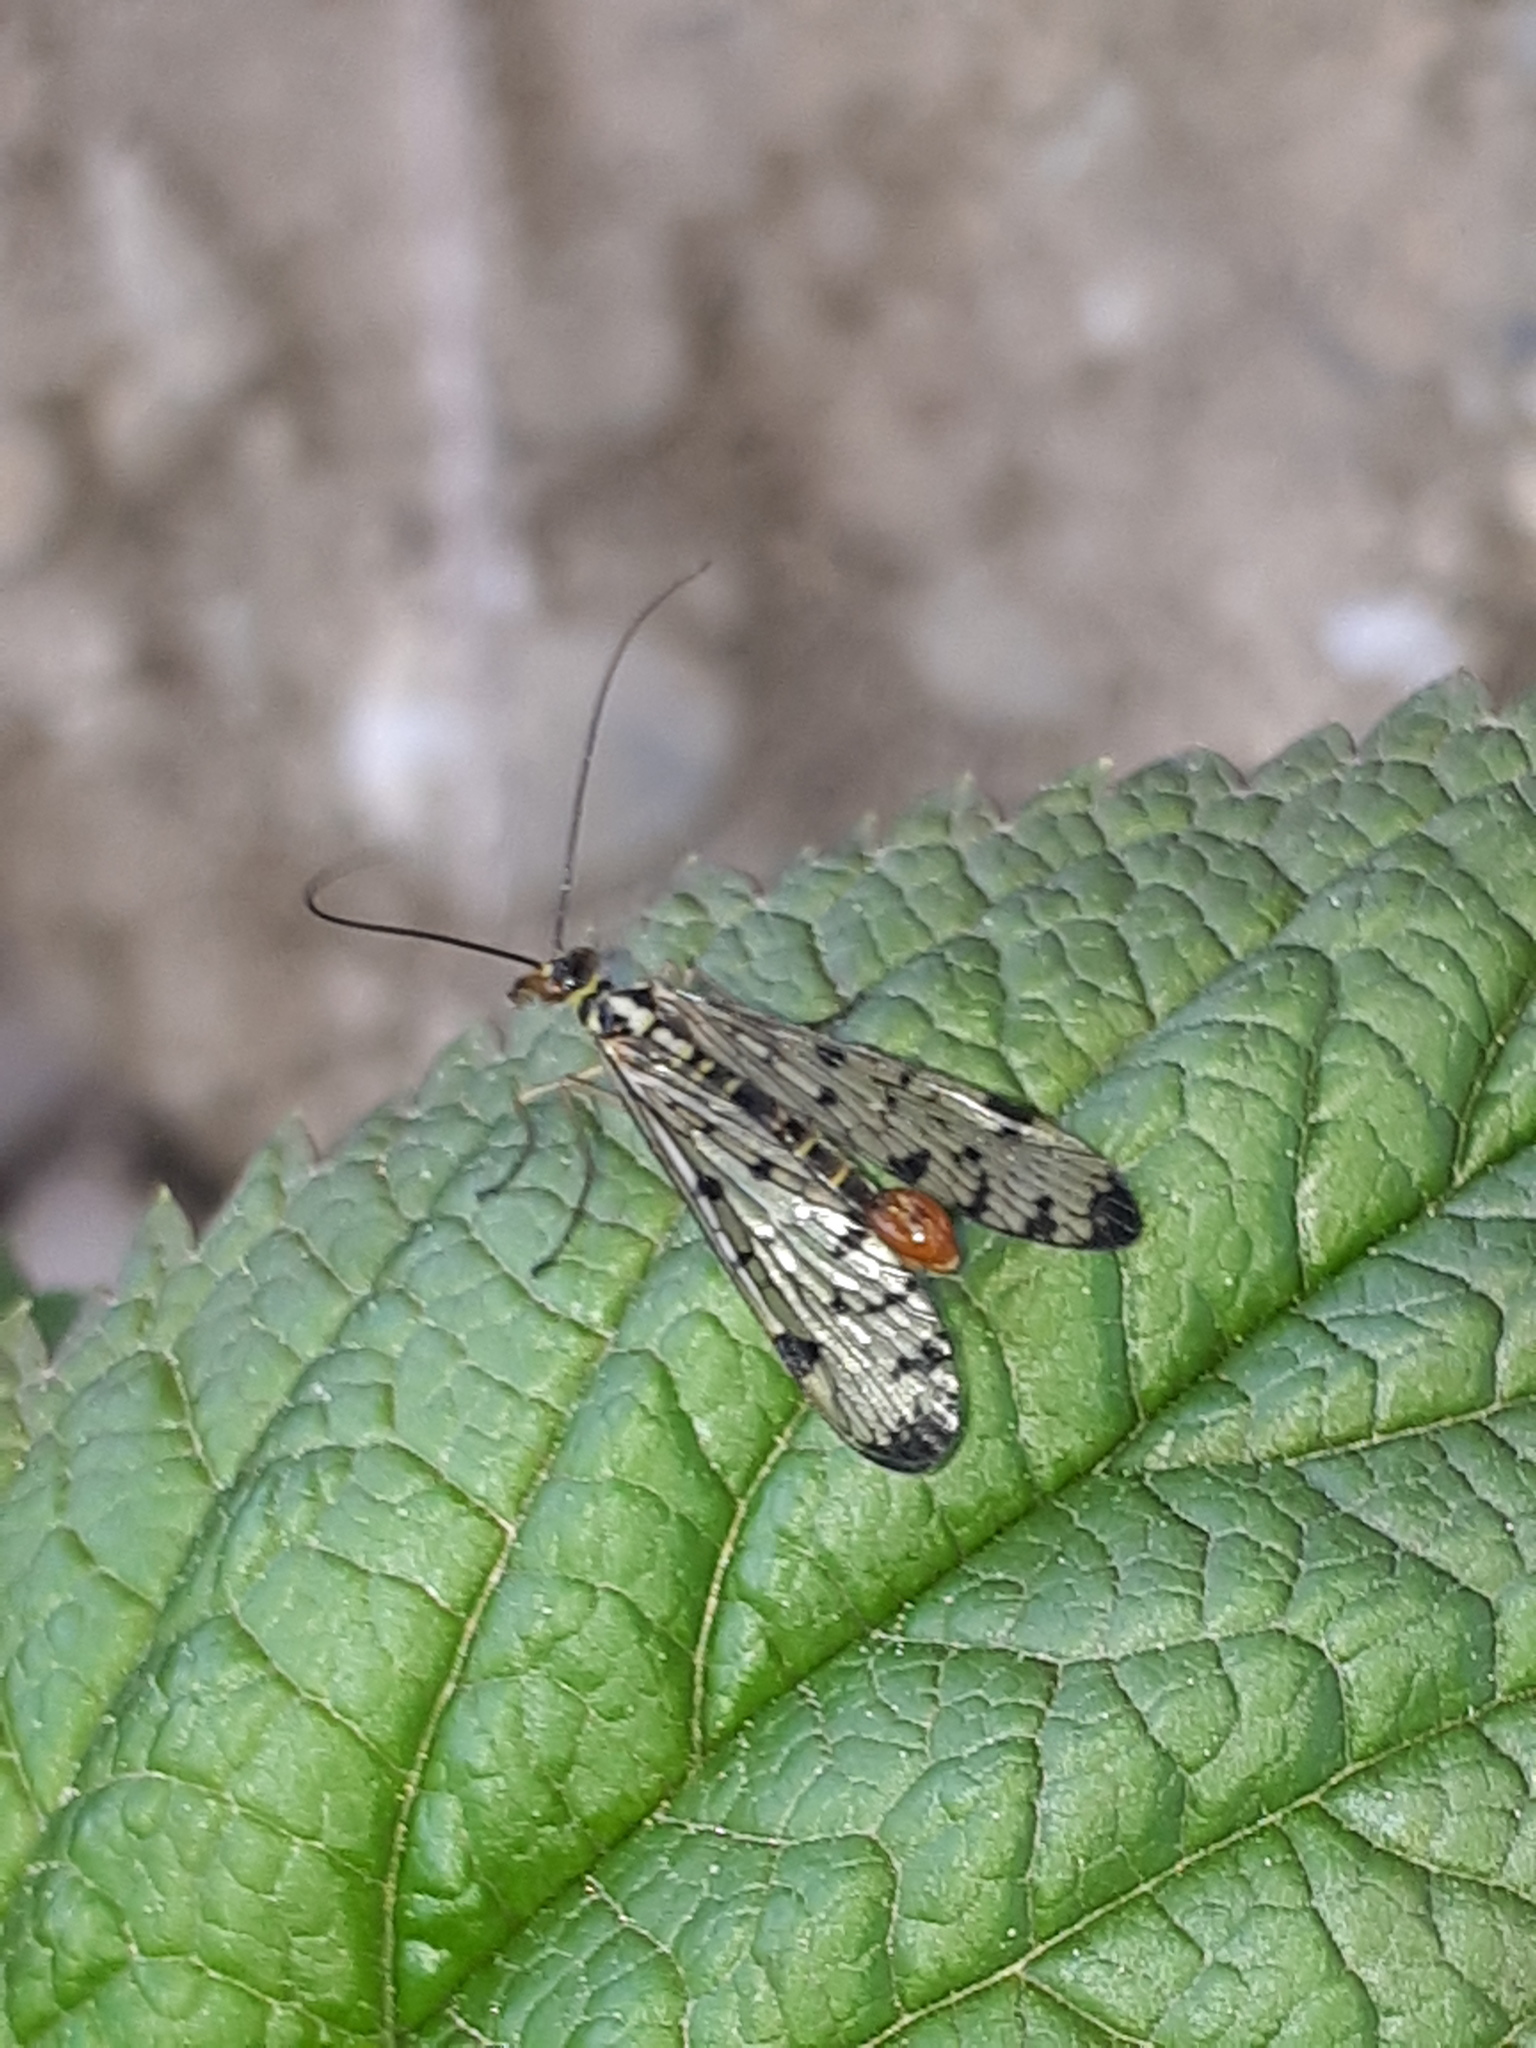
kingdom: Animalia
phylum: Arthropoda
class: Insecta
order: Mecoptera
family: Panorpidae
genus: Panorpa
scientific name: Panorpa germanica
